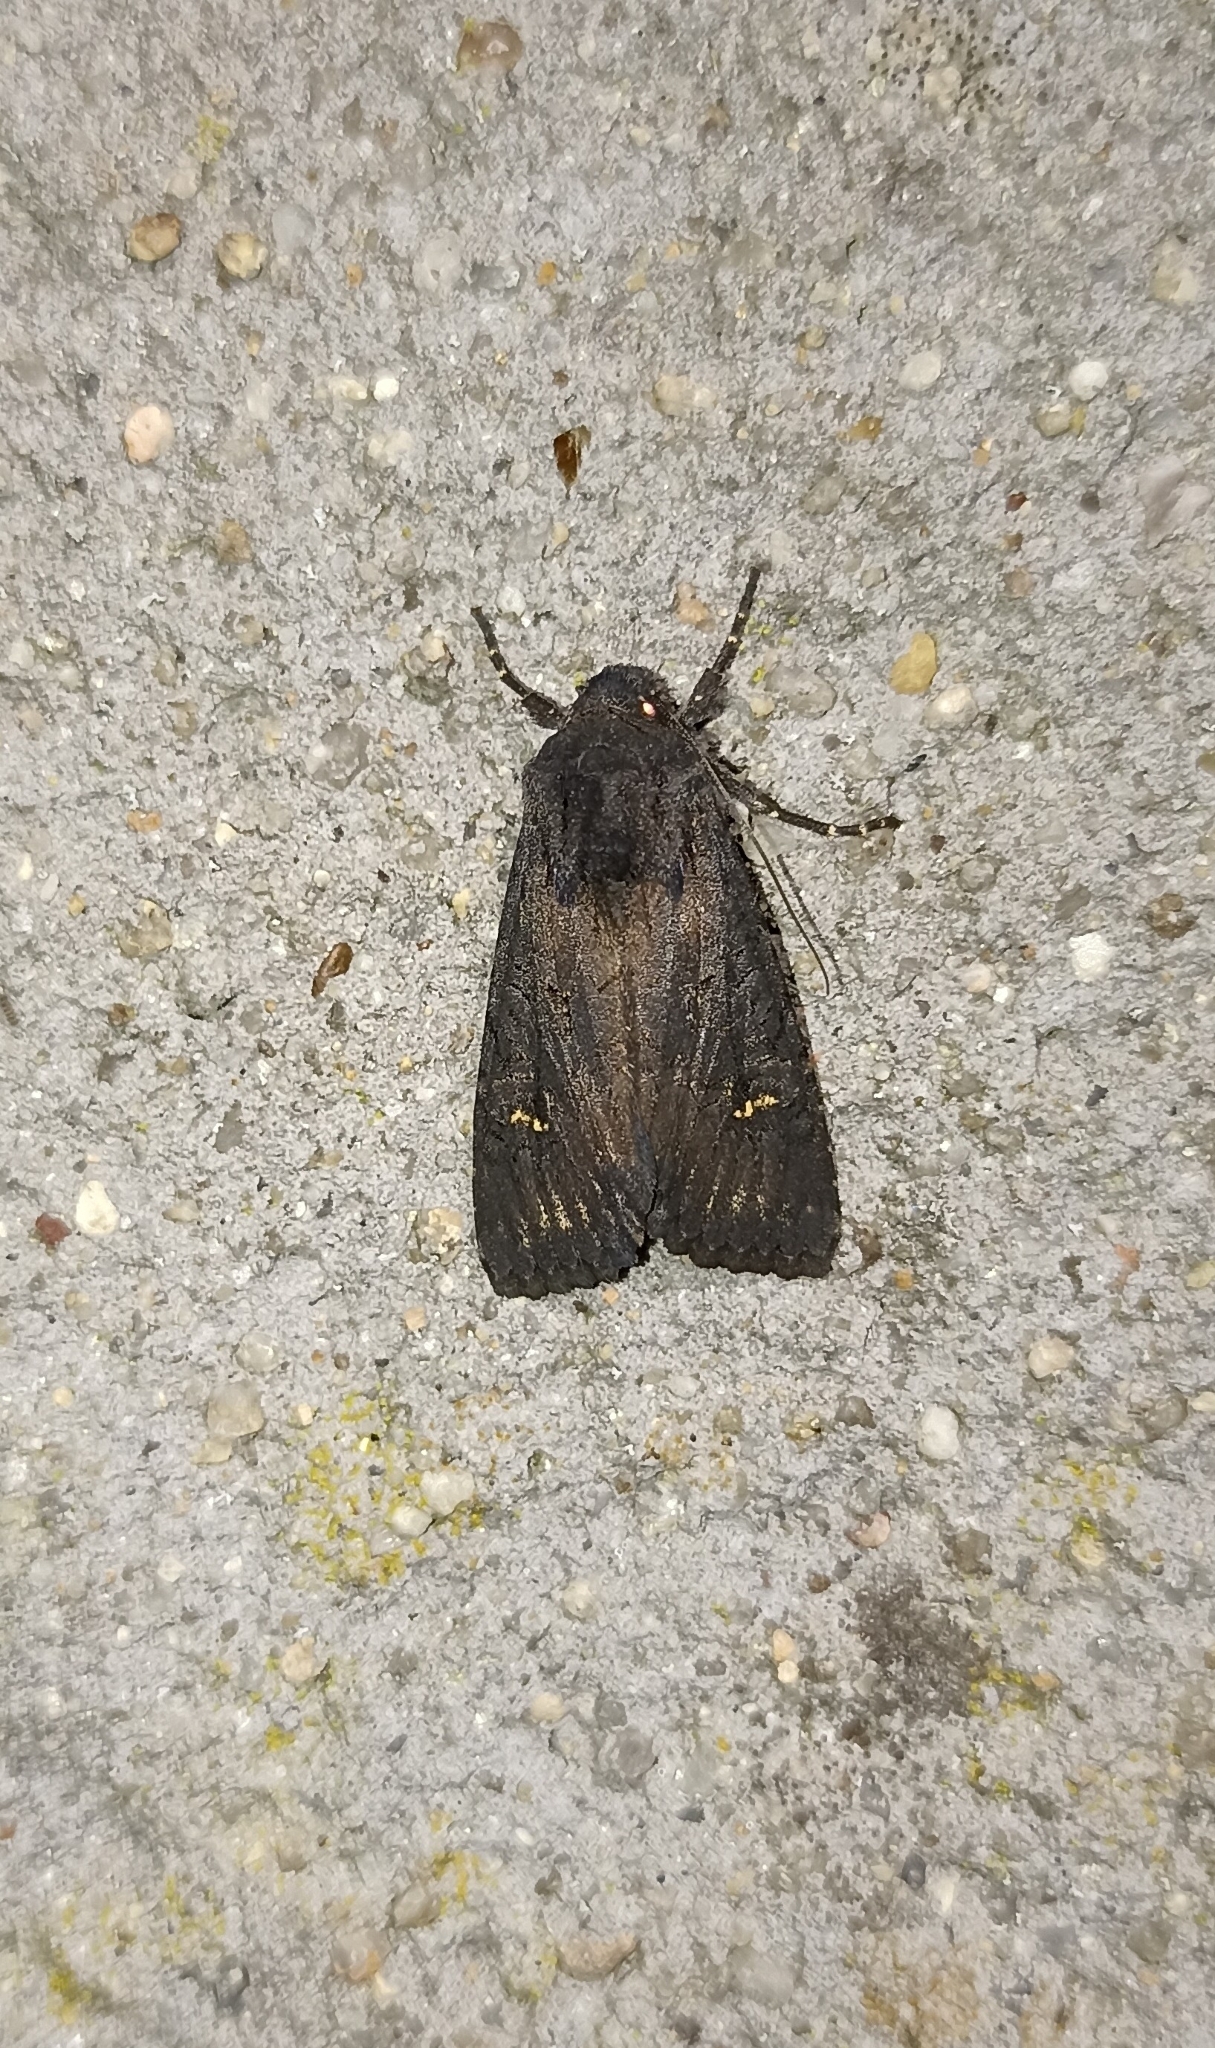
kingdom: Animalia
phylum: Arthropoda
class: Insecta
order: Lepidoptera
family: Noctuidae
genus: Aporophyla
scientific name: Aporophyla nigra
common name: Black rustic
